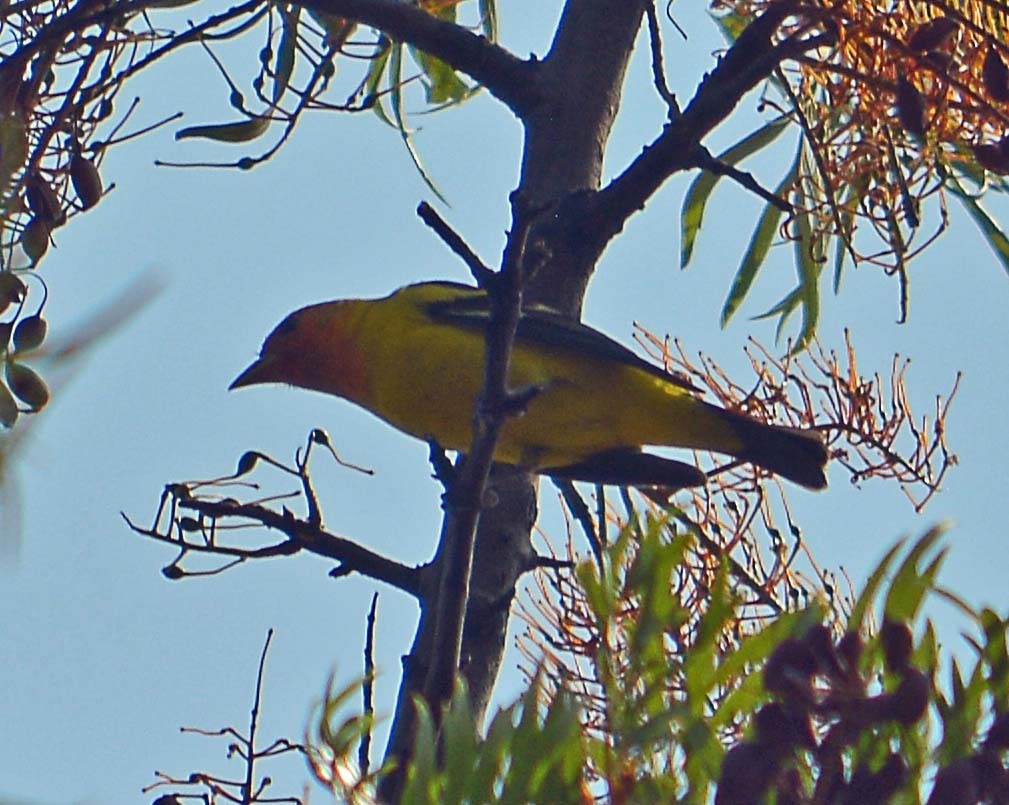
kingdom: Animalia
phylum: Chordata
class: Aves
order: Passeriformes
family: Cardinalidae
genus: Piranga
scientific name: Piranga ludoviciana
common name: Western tanager
